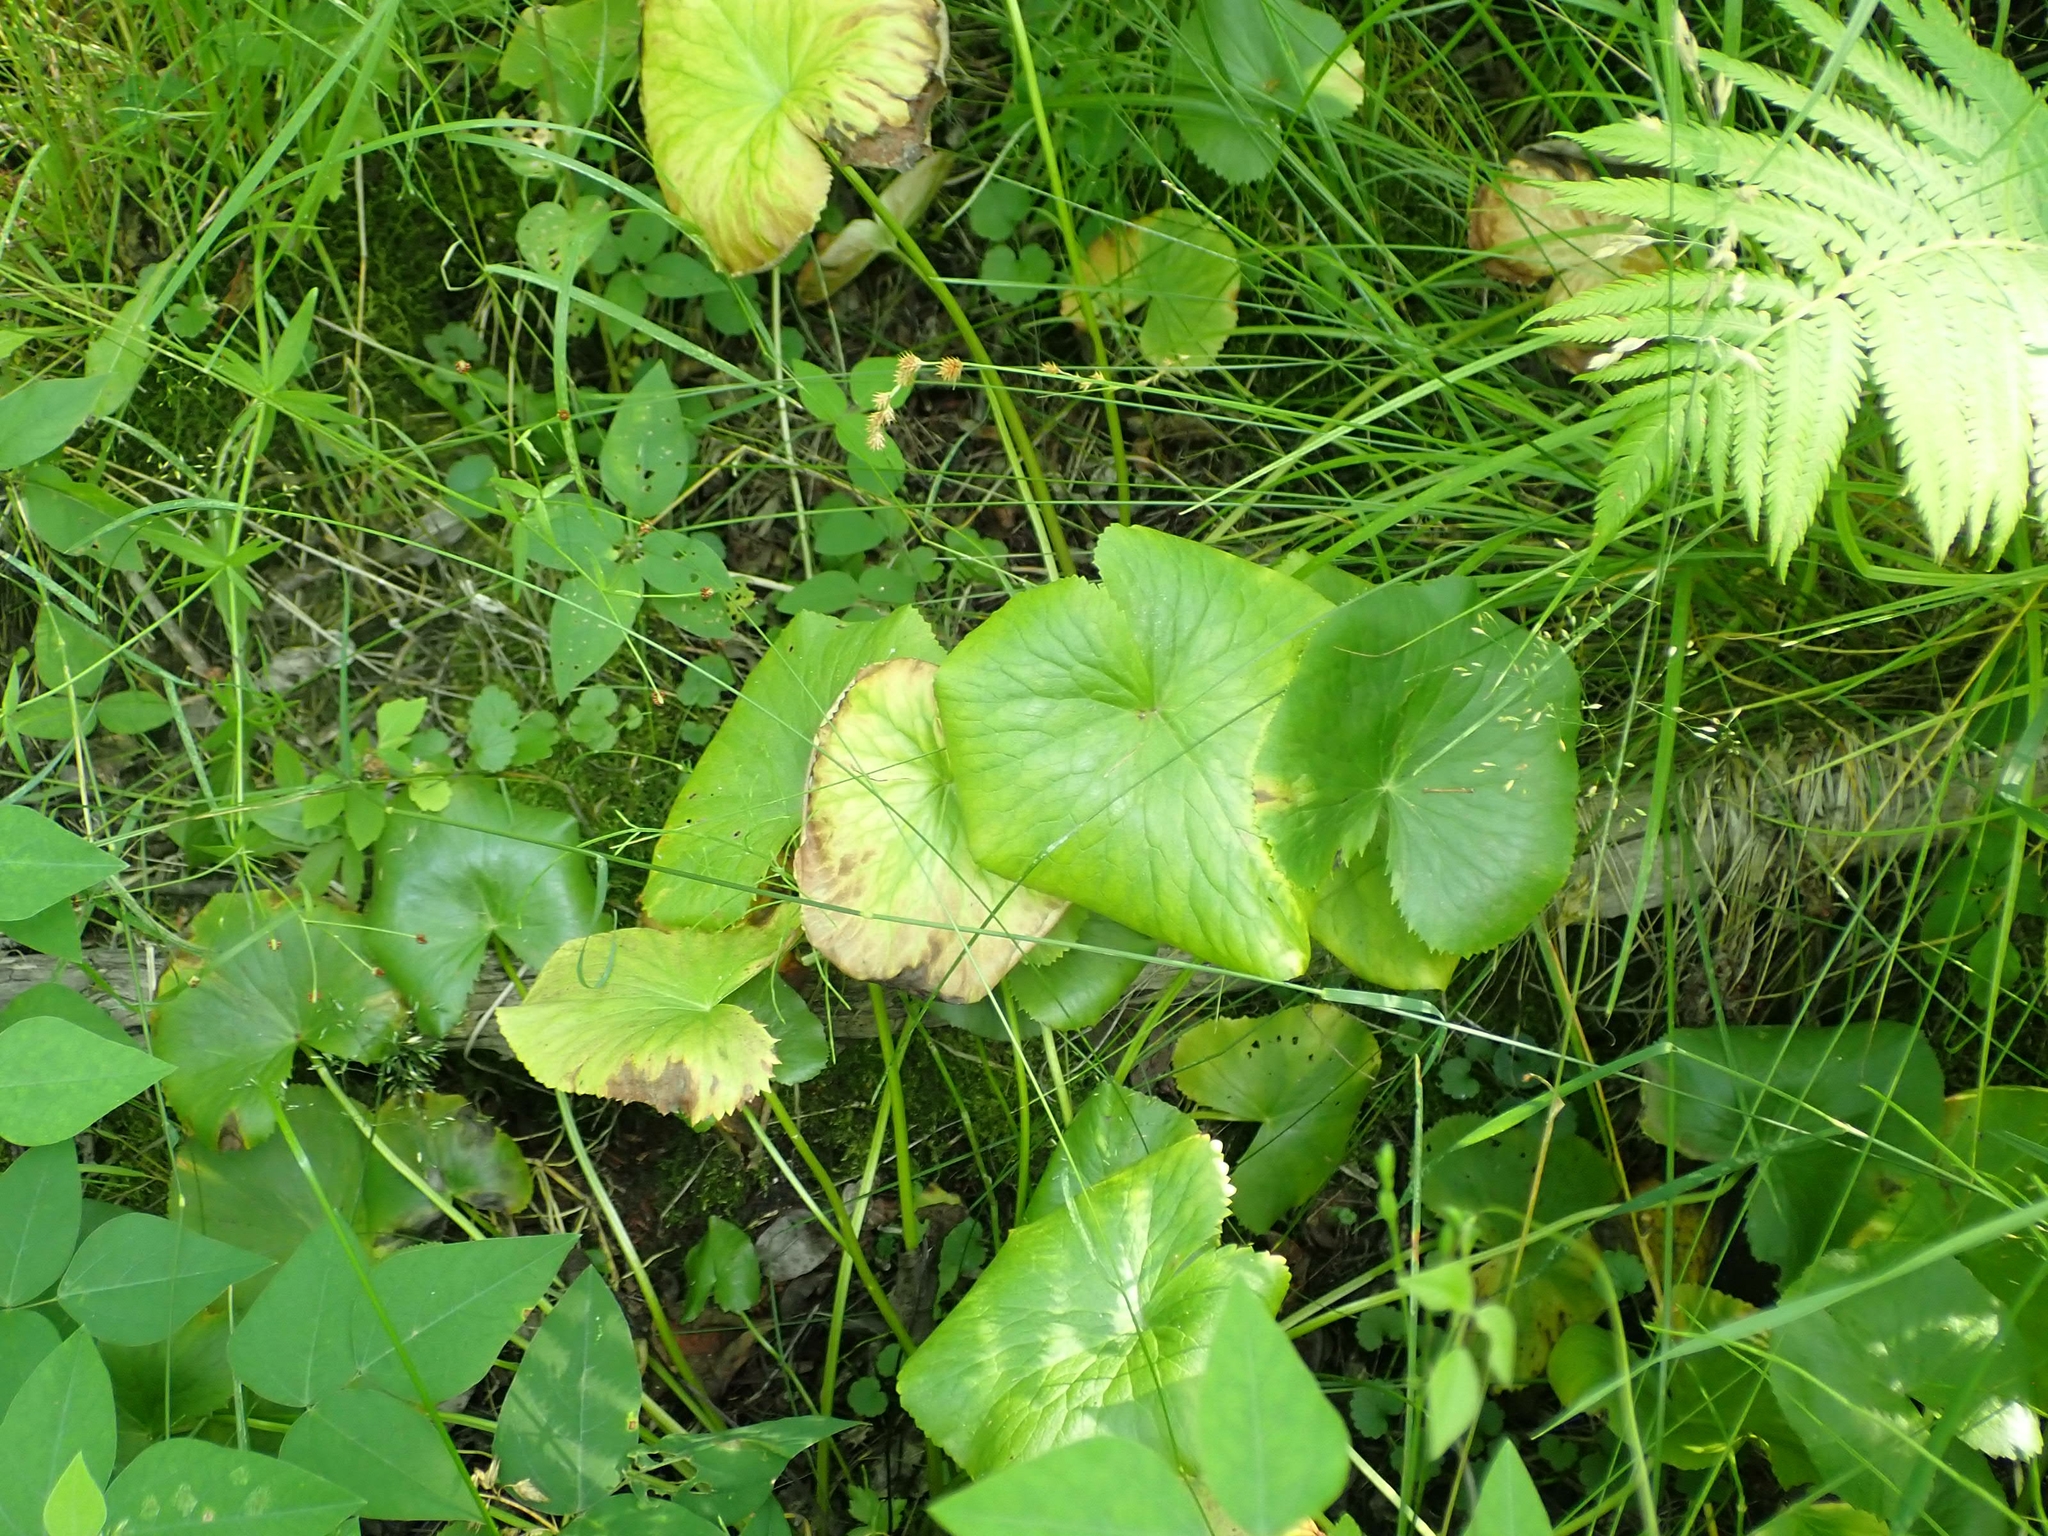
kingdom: Plantae
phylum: Tracheophyta
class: Magnoliopsida
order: Ranunculales
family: Ranunculaceae
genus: Caltha
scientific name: Caltha palustris
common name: Marsh marigold
